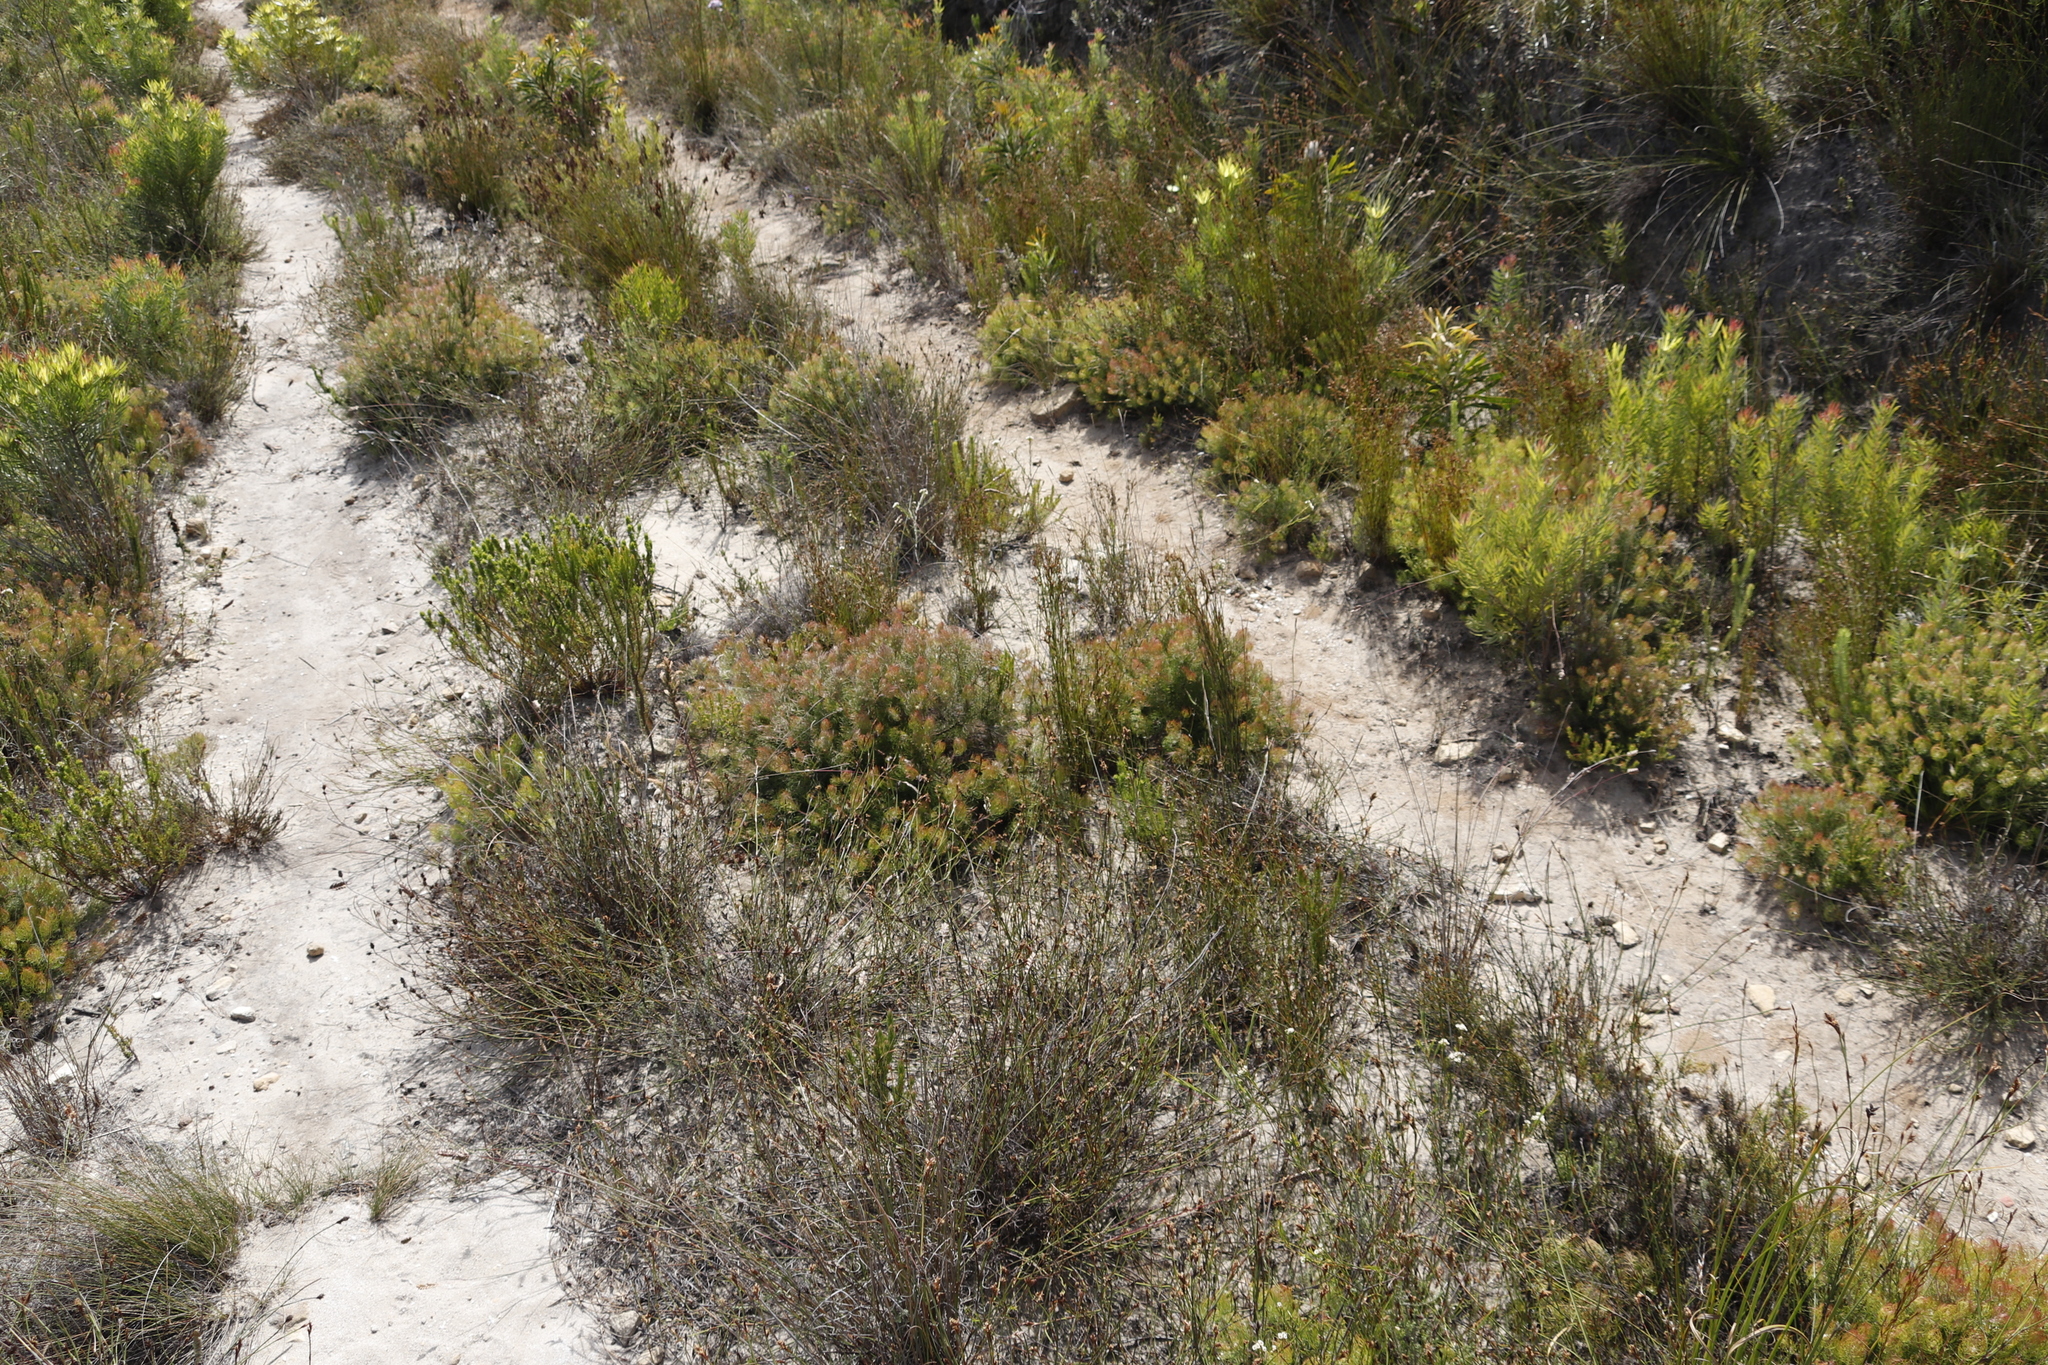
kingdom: Plantae
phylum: Tracheophyta
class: Magnoliopsida
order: Proteales
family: Proteaceae
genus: Serruria
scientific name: Serruria inconspicua
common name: Cryptic spiderhead
